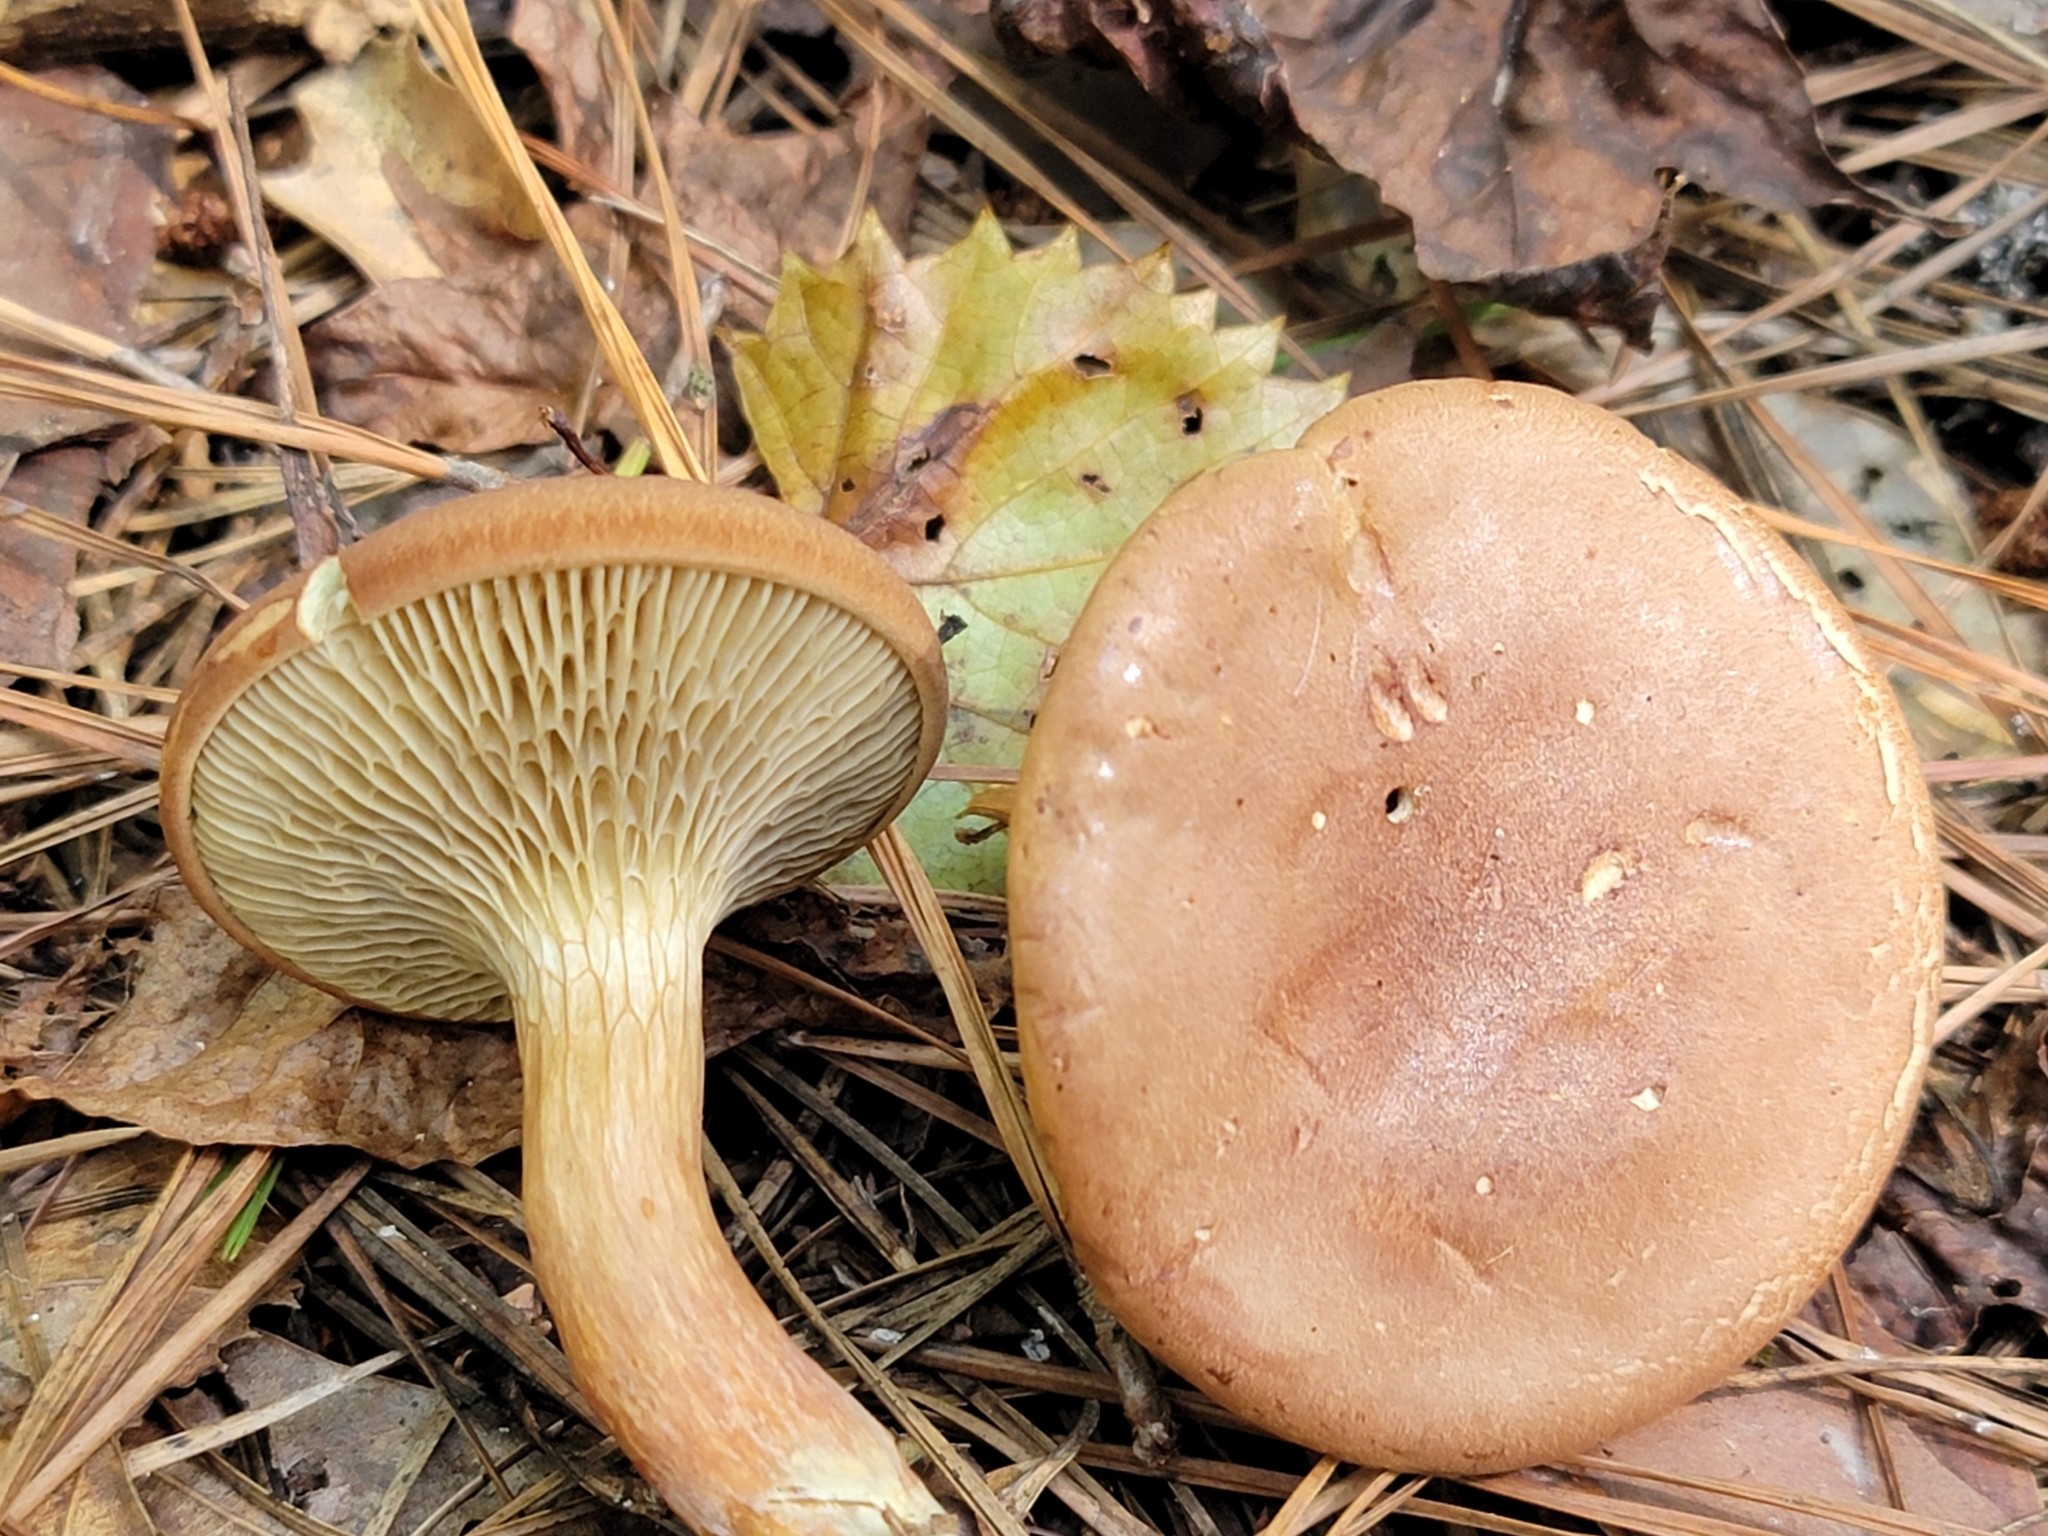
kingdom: Fungi
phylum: Basidiomycota
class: Agaricomycetes
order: Boletales
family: Boletaceae
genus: Phylloporopsis
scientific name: Phylloporopsis boletinoides
